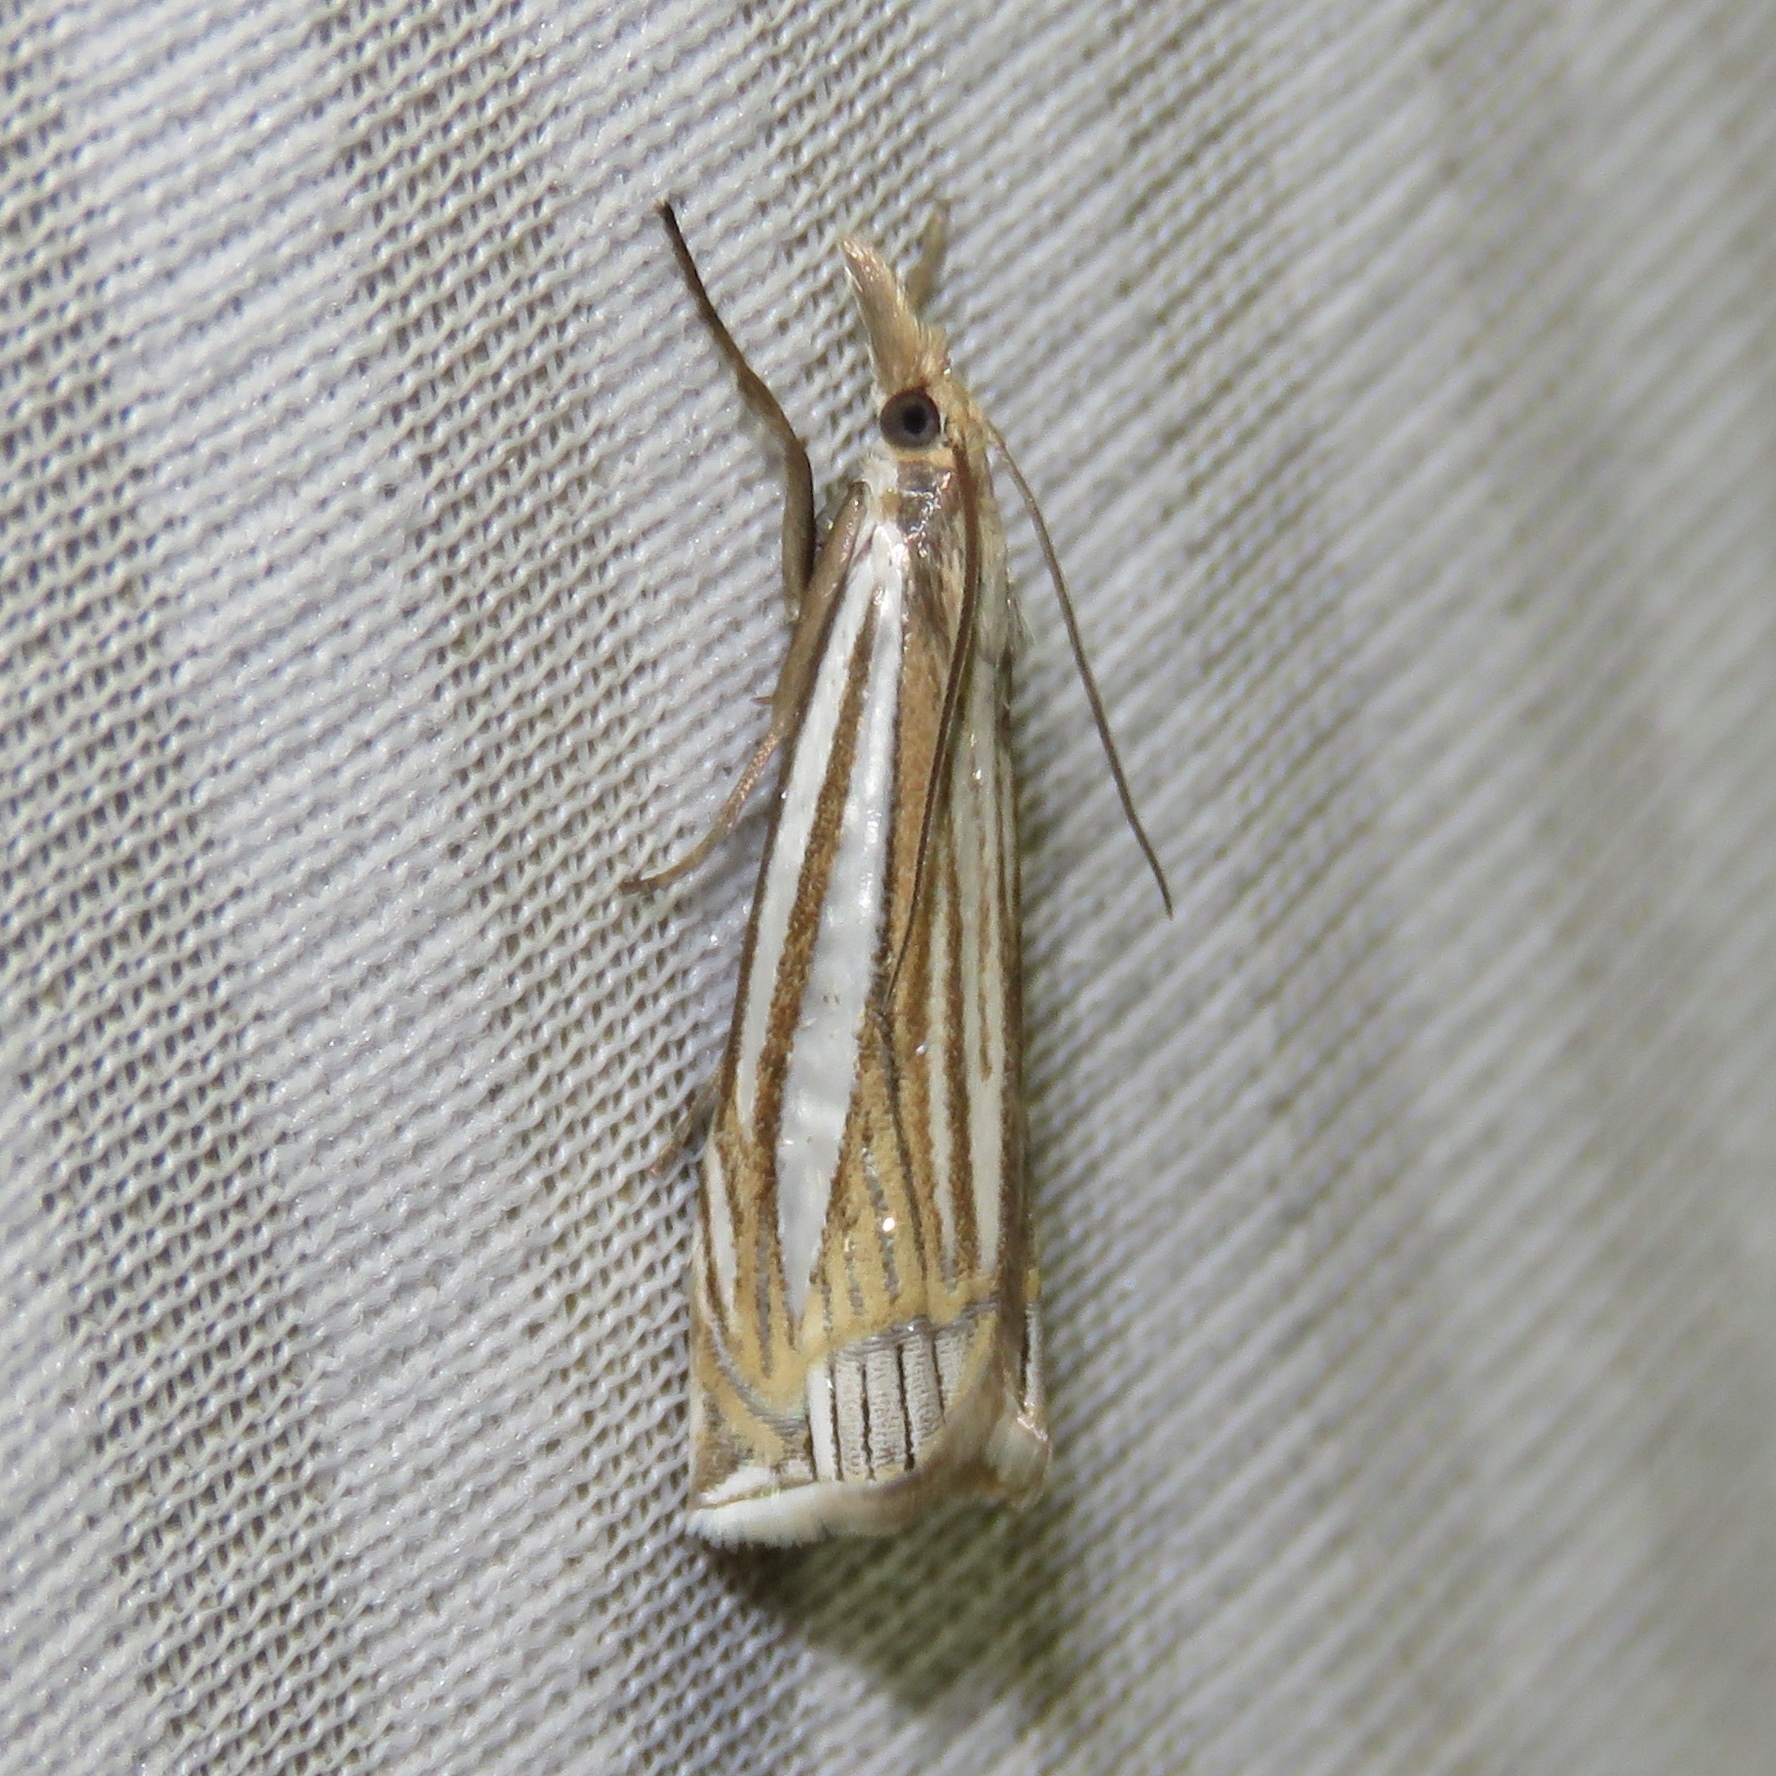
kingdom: Animalia
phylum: Arthropoda
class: Insecta
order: Lepidoptera
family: Crambidae
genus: Crambus
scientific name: Crambus laqueatellus
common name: Eastern grass-veneer
